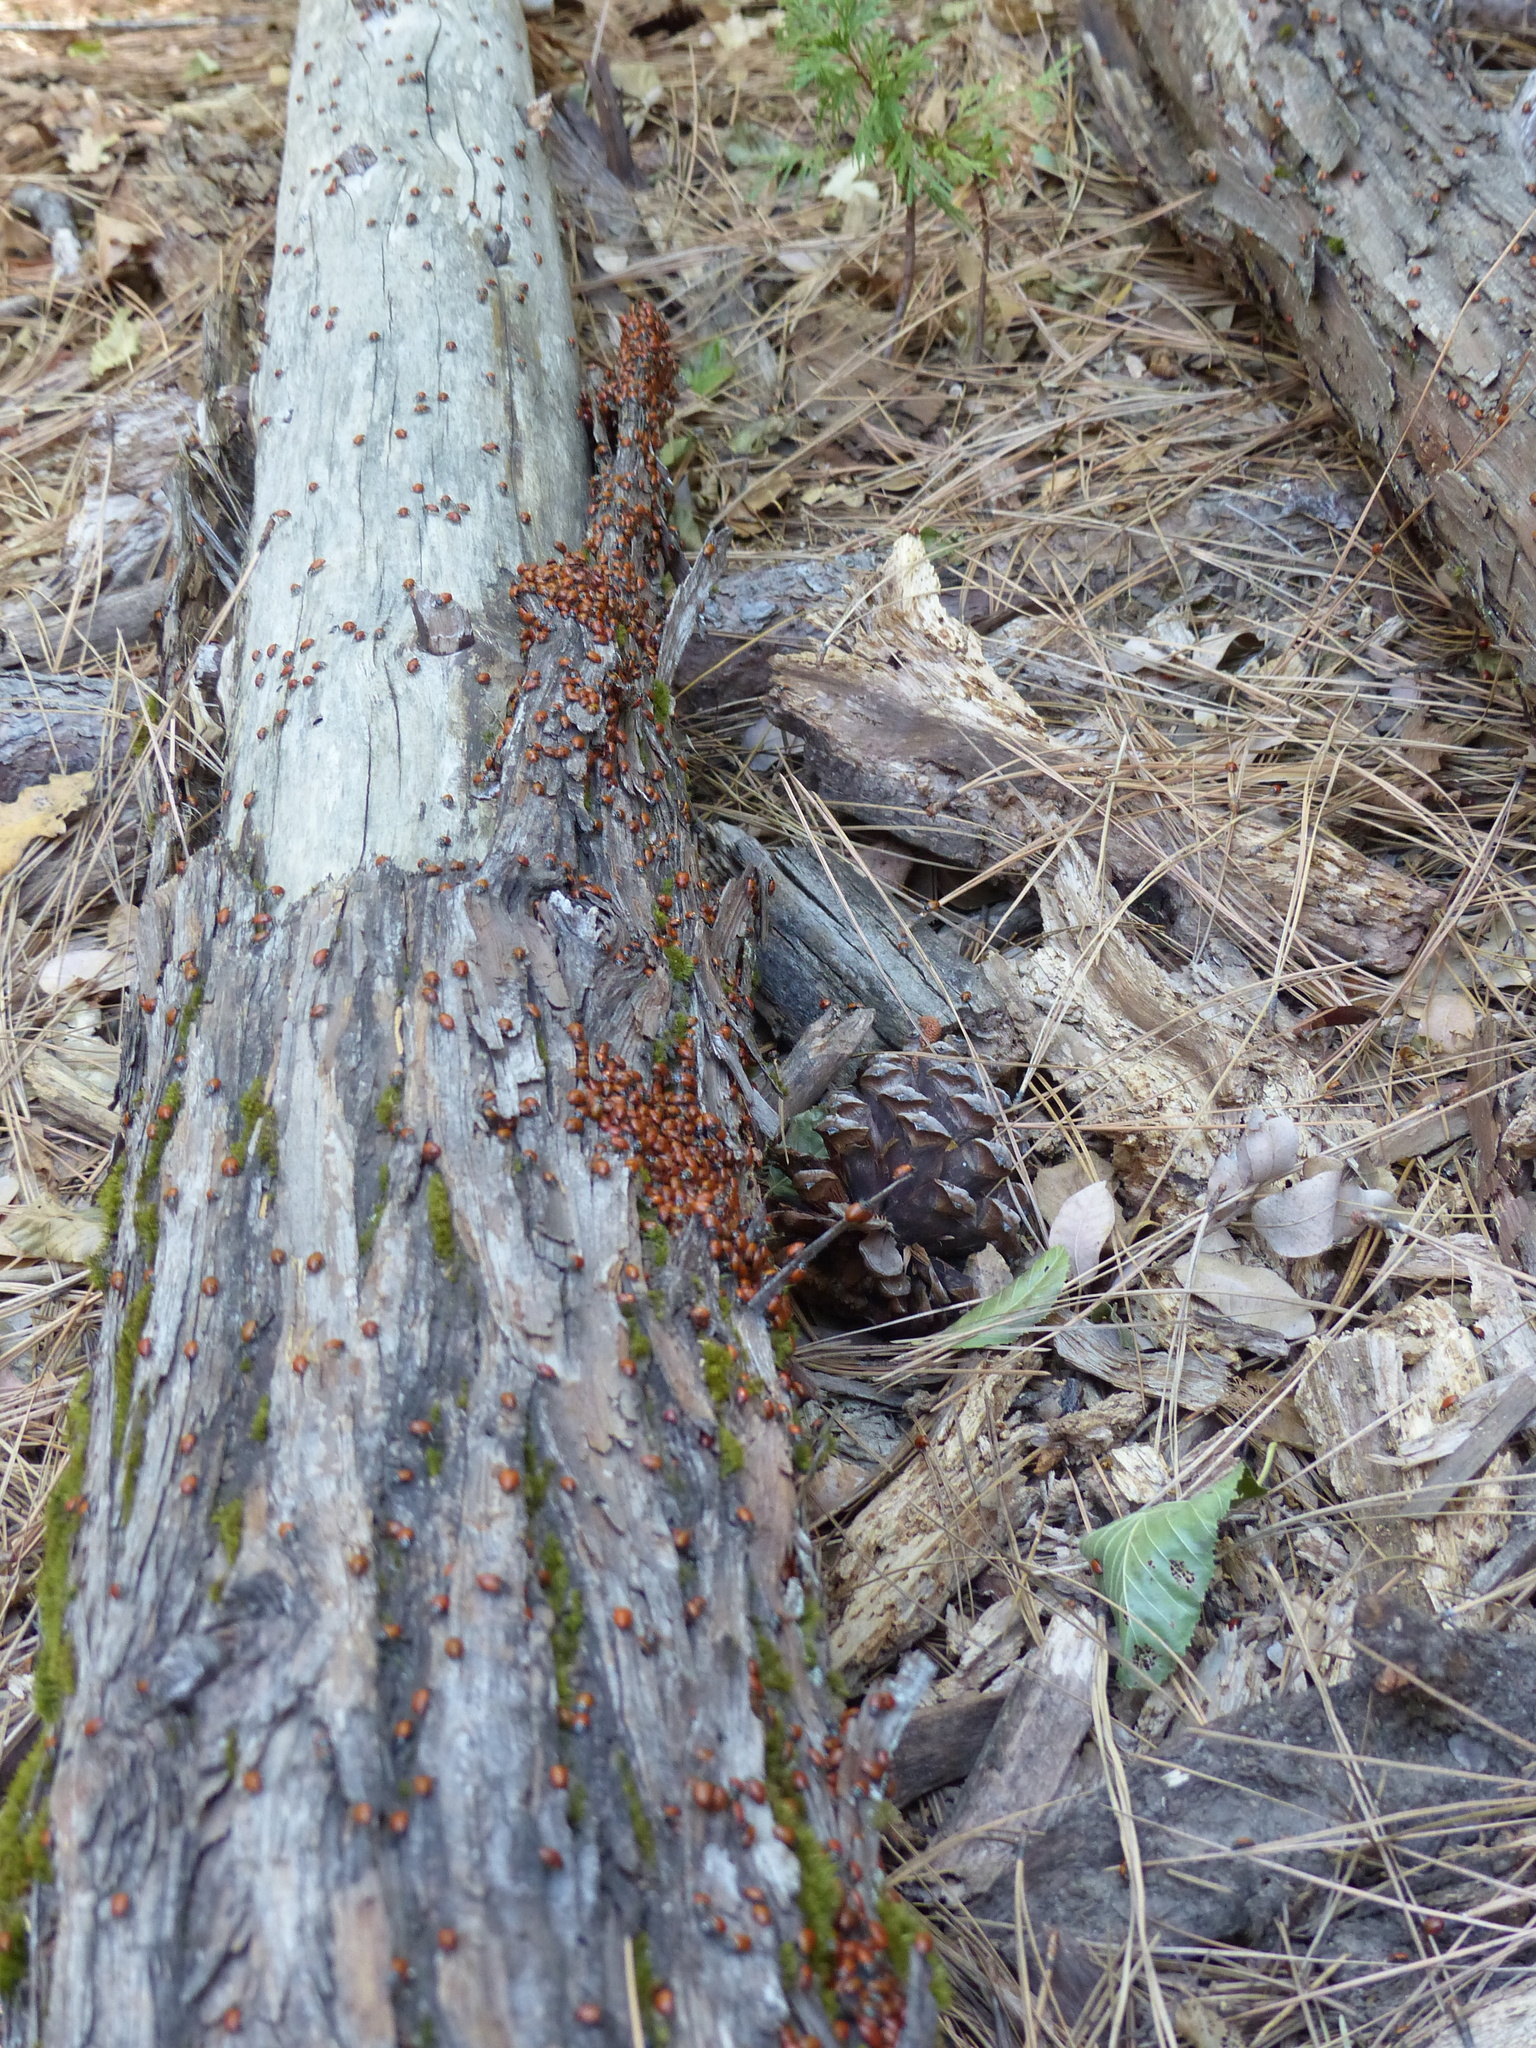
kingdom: Animalia
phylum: Arthropoda
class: Insecta
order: Coleoptera
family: Coccinellidae
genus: Hippodamia
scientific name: Hippodamia convergens
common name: Convergent lady beetle
